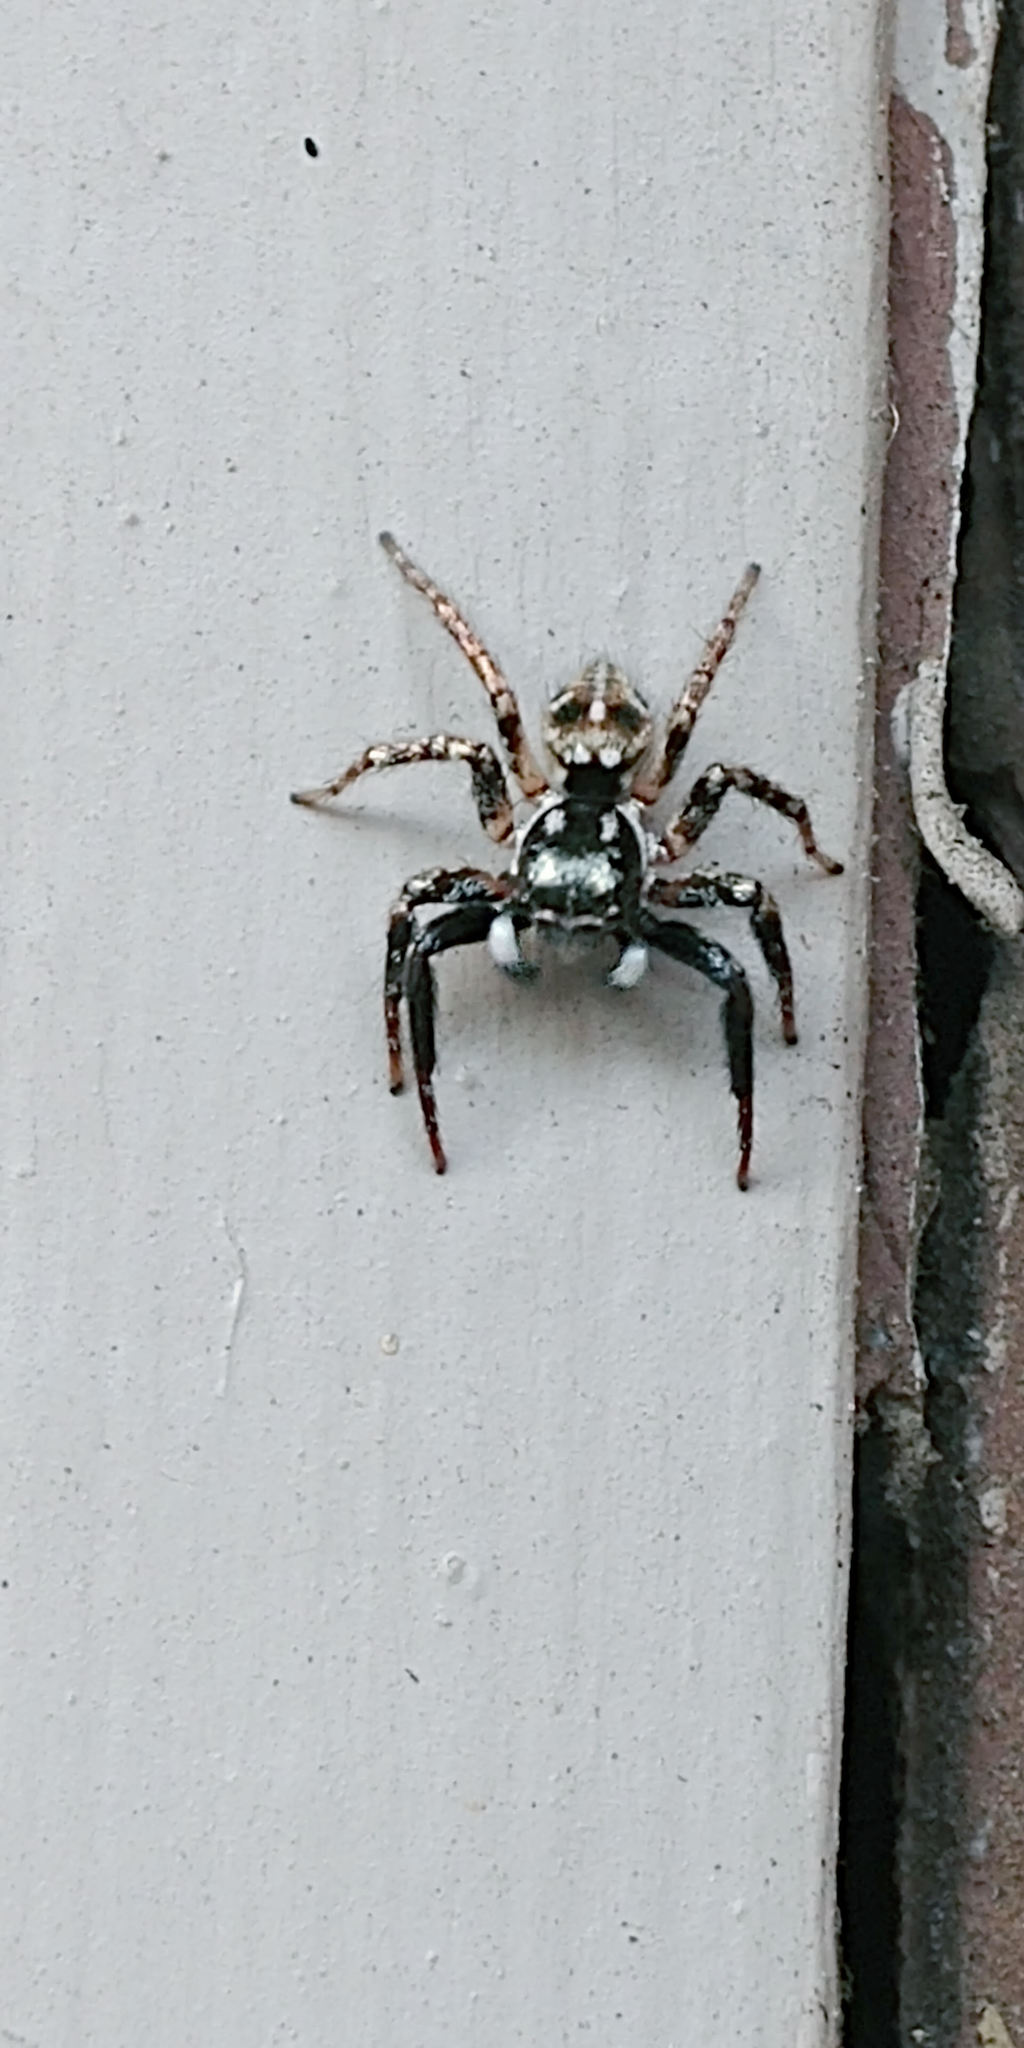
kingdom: Animalia
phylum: Arthropoda
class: Arachnida
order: Araneae
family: Salticidae
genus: Anasaitis
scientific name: Anasaitis canosa
